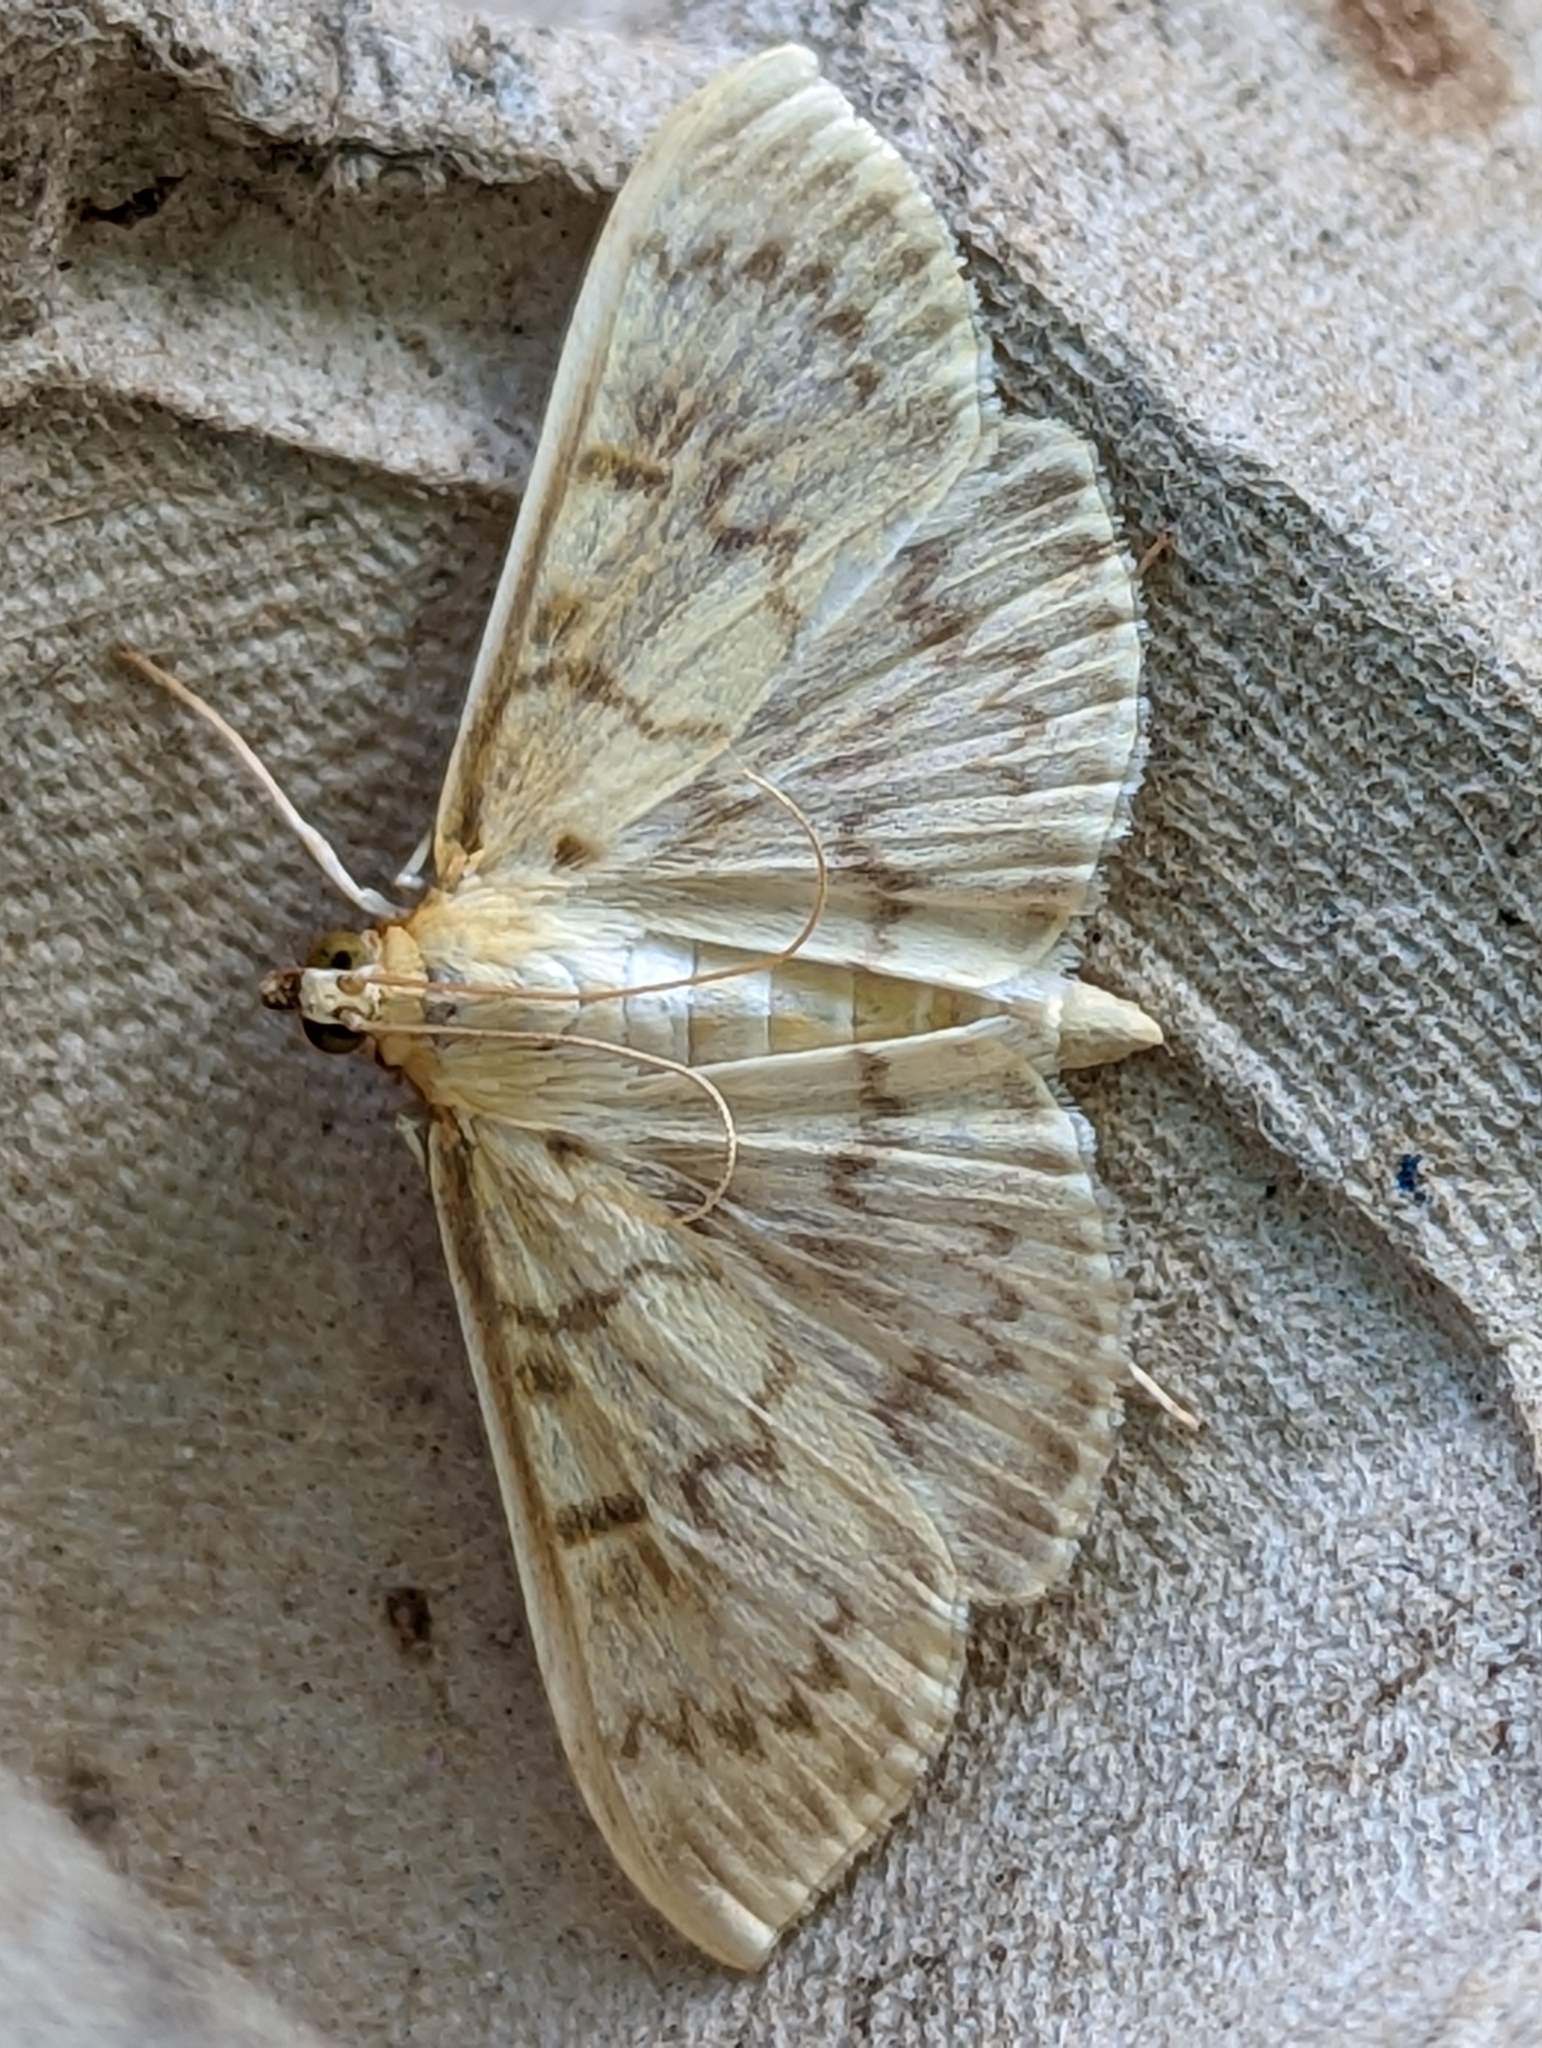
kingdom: Animalia
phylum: Arthropoda
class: Insecta
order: Lepidoptera
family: Crambidae
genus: Patania
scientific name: Patania ruralis
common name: Mother of pearl
